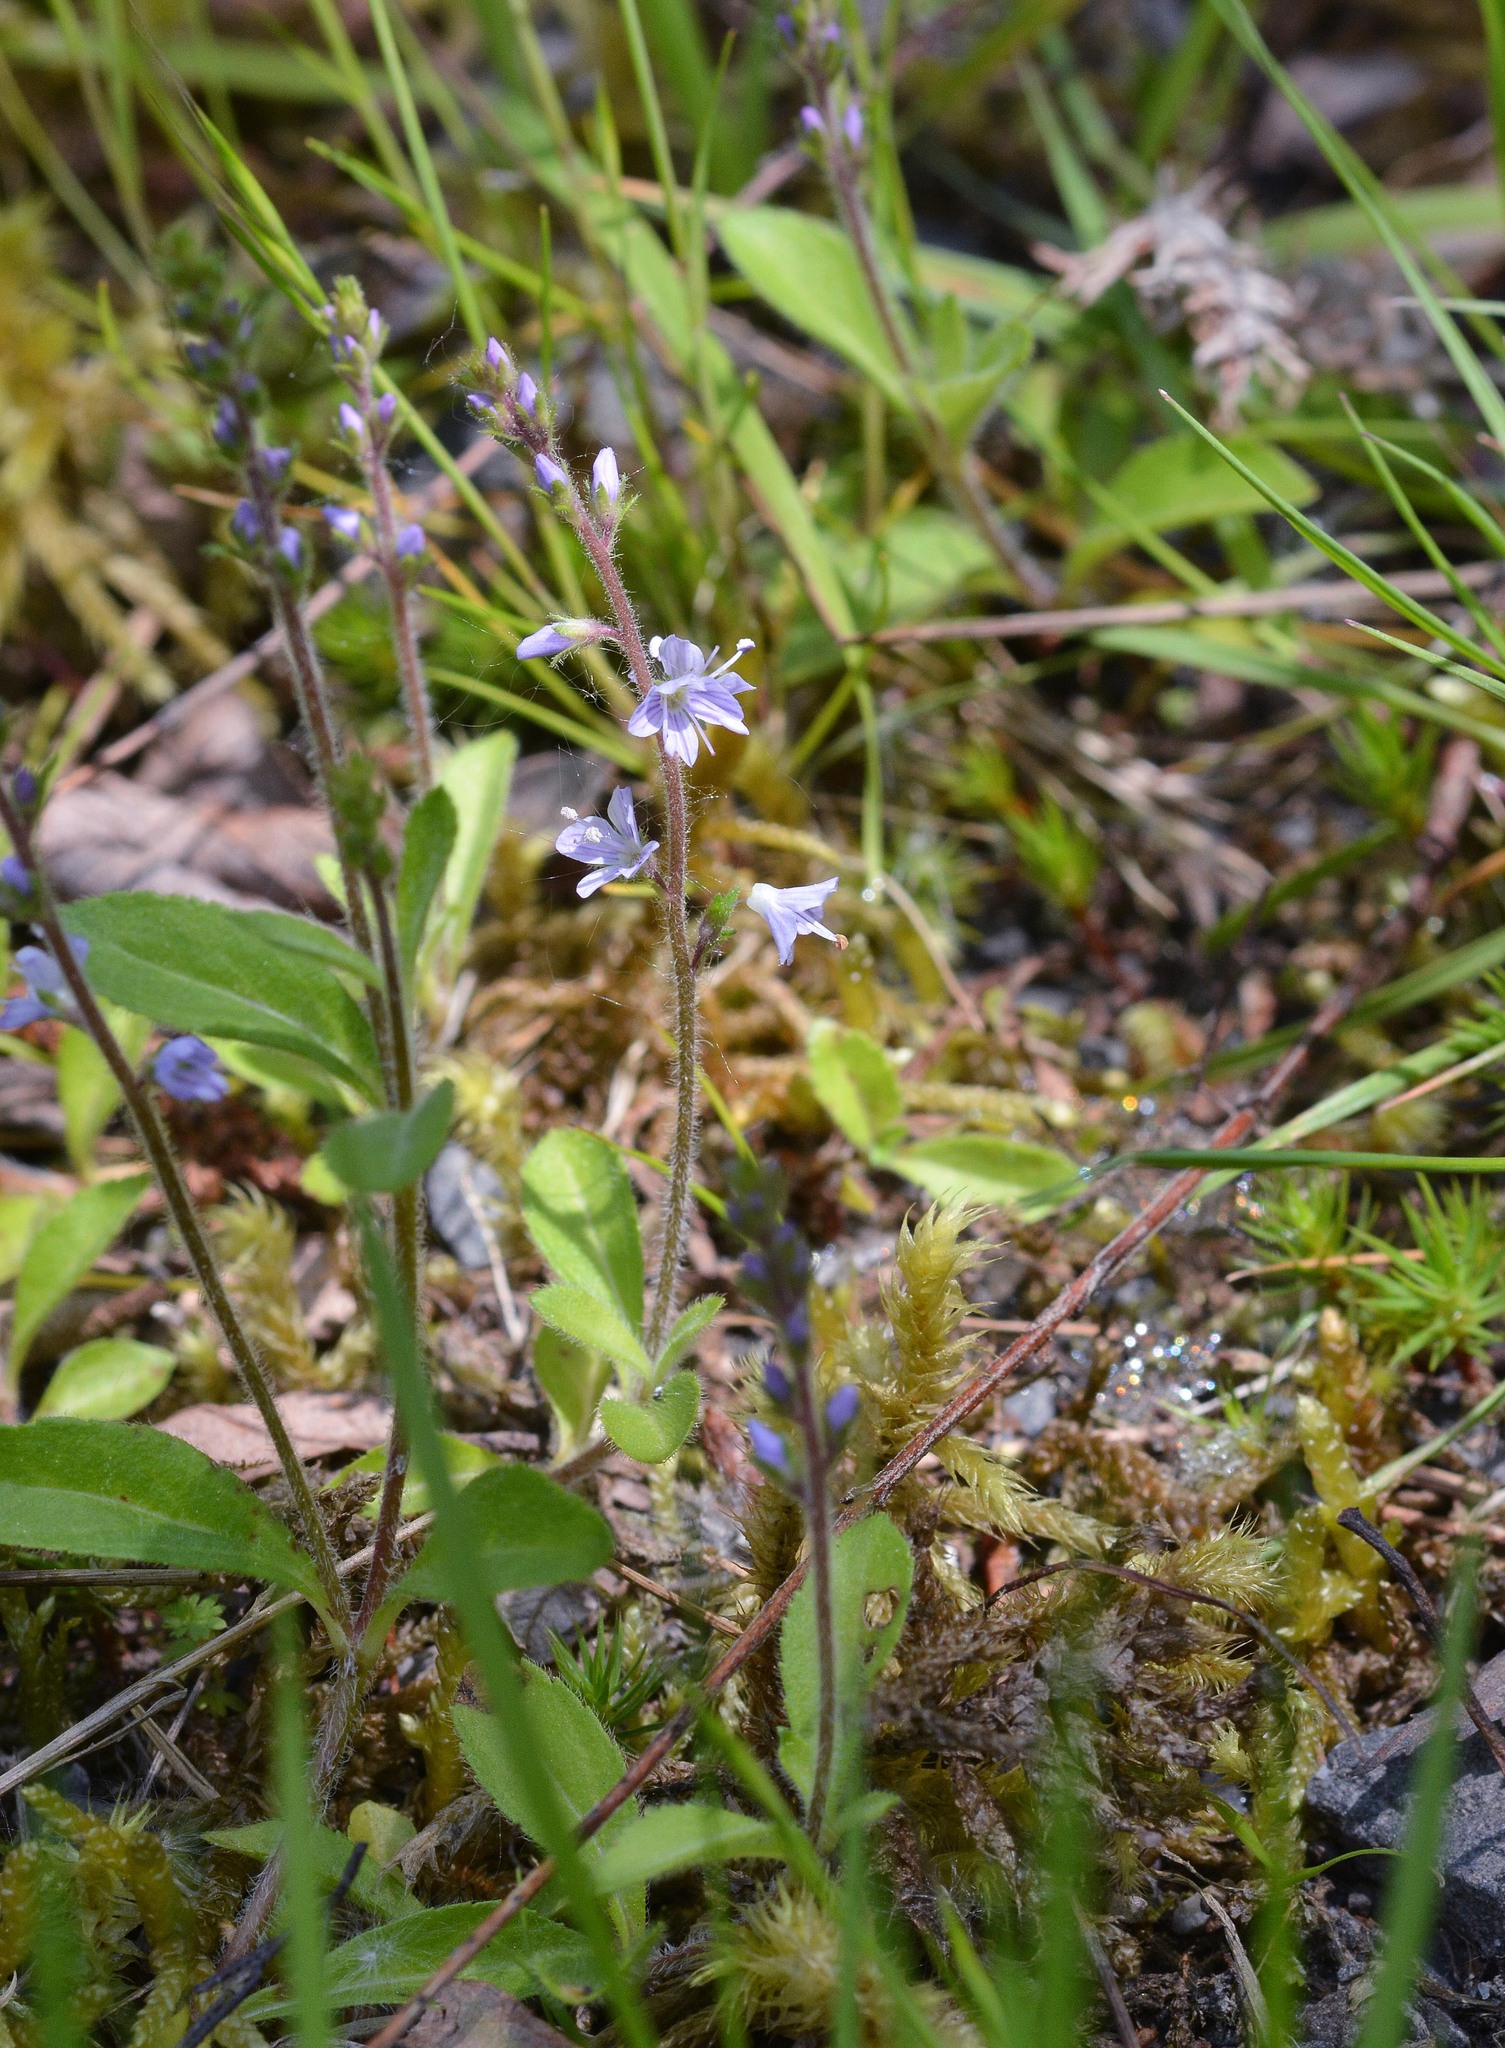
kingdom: Plantae
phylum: Tracheophyta
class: Magnoliopsida
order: Lamiales
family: Plantaginaceae
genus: Veronica
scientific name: Veronica officinalis
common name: Common speedwell
